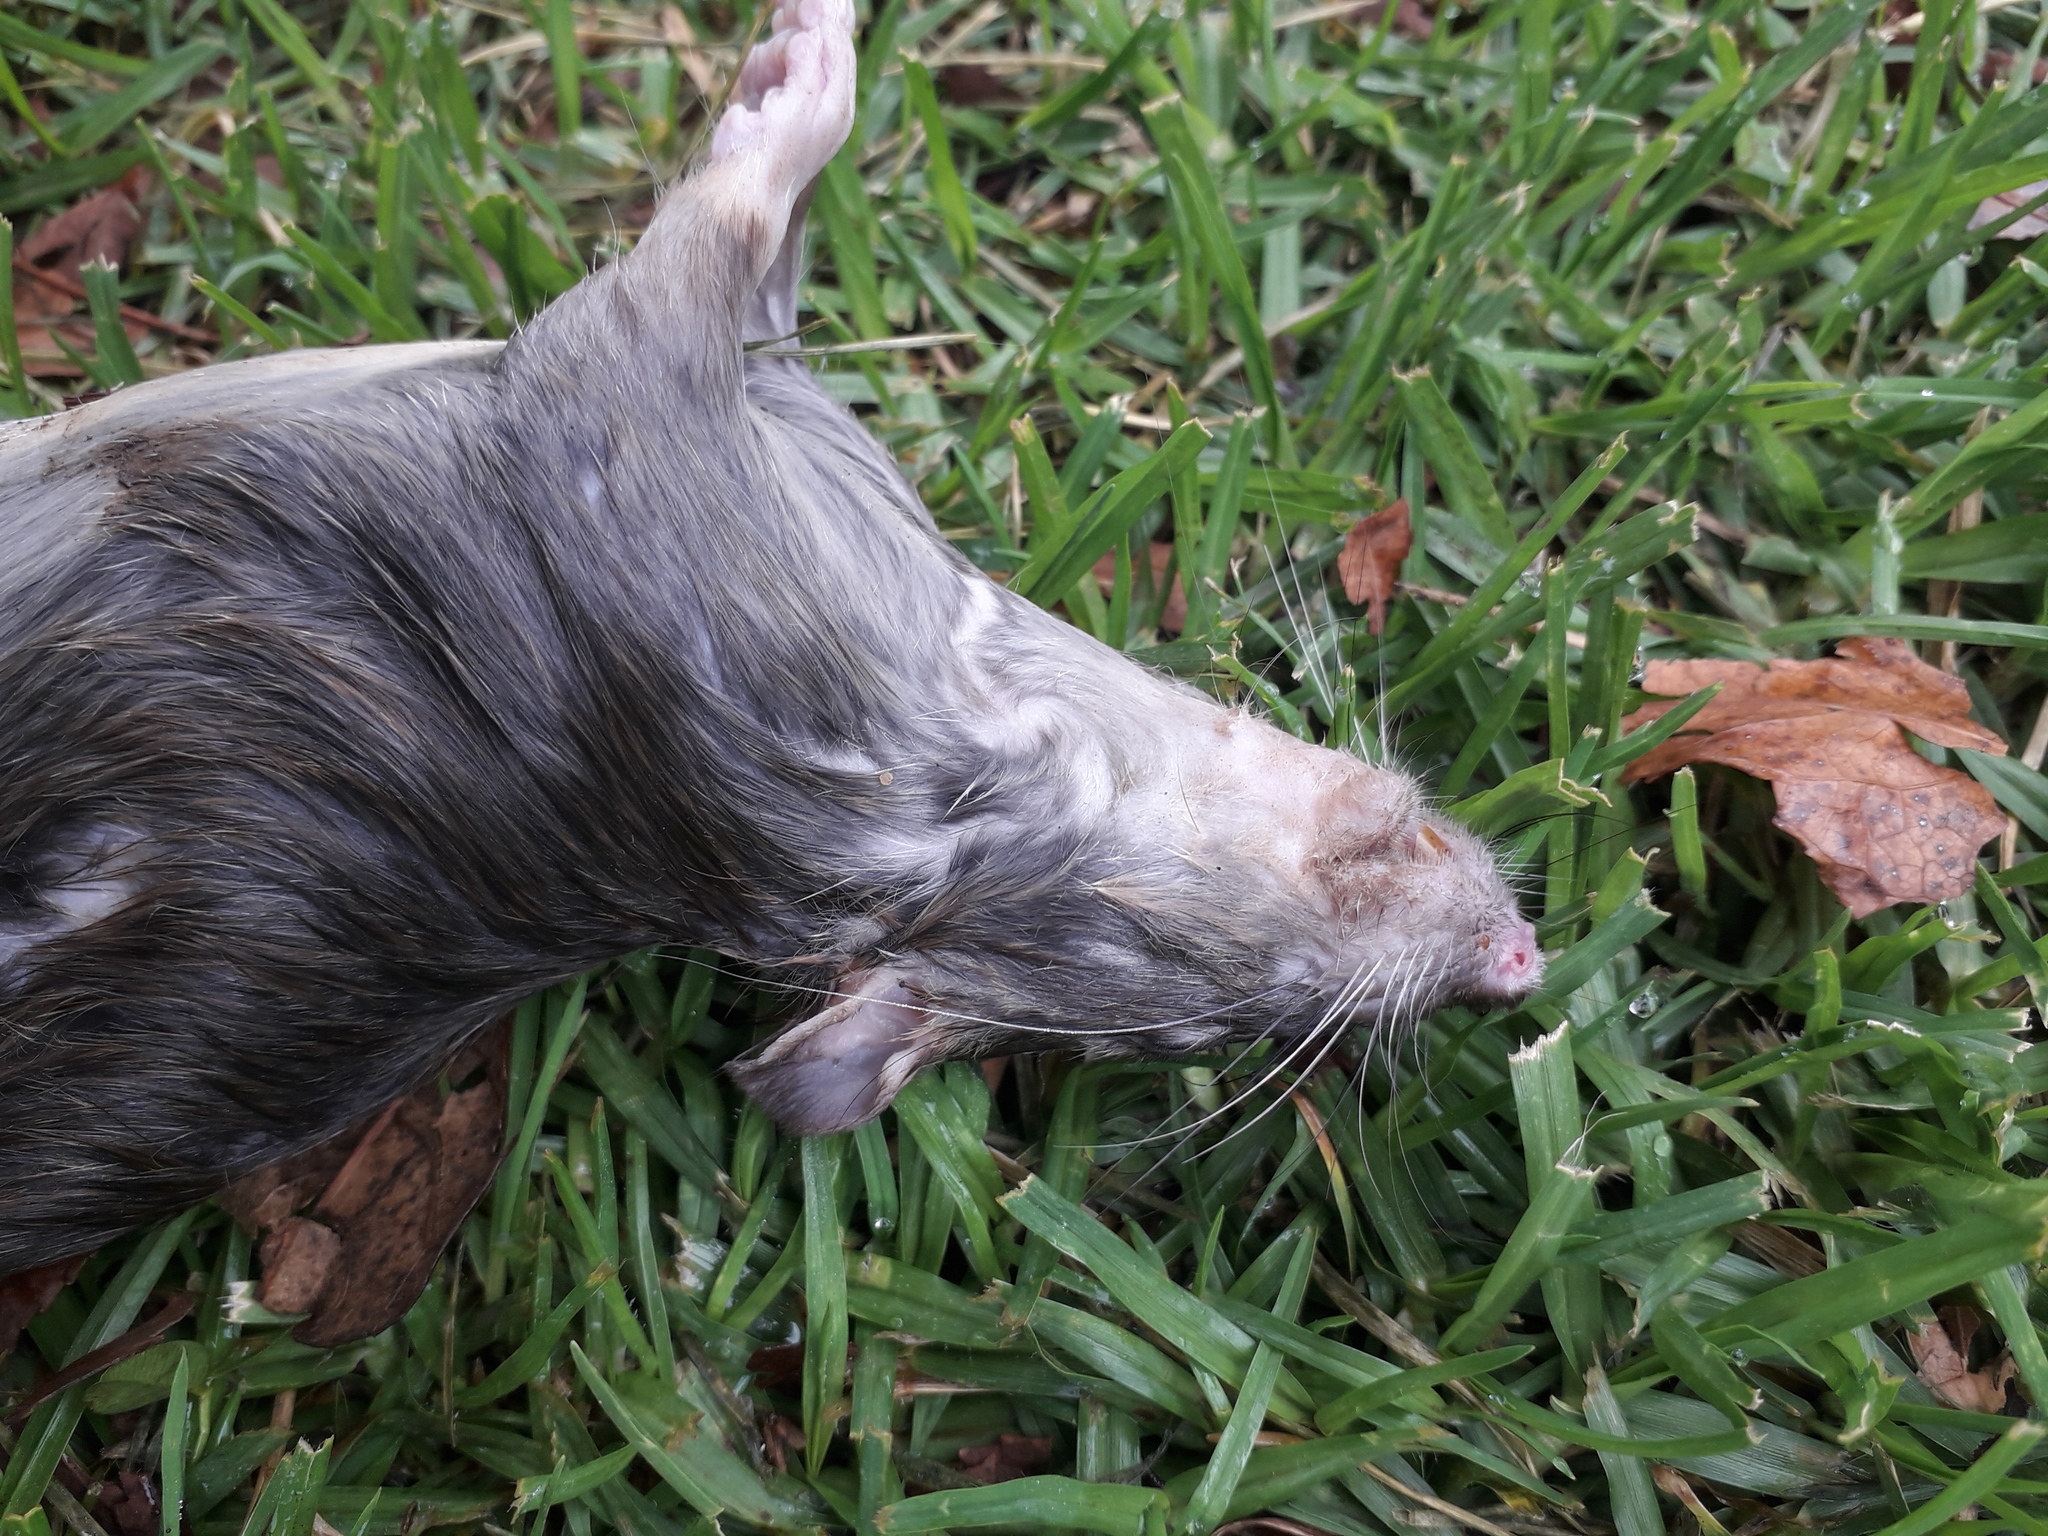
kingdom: Animalia
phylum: Chordata
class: Mammalia
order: Rodentia
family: Muridae
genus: Rattus
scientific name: Rattus norvegicus
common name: Brown rat
